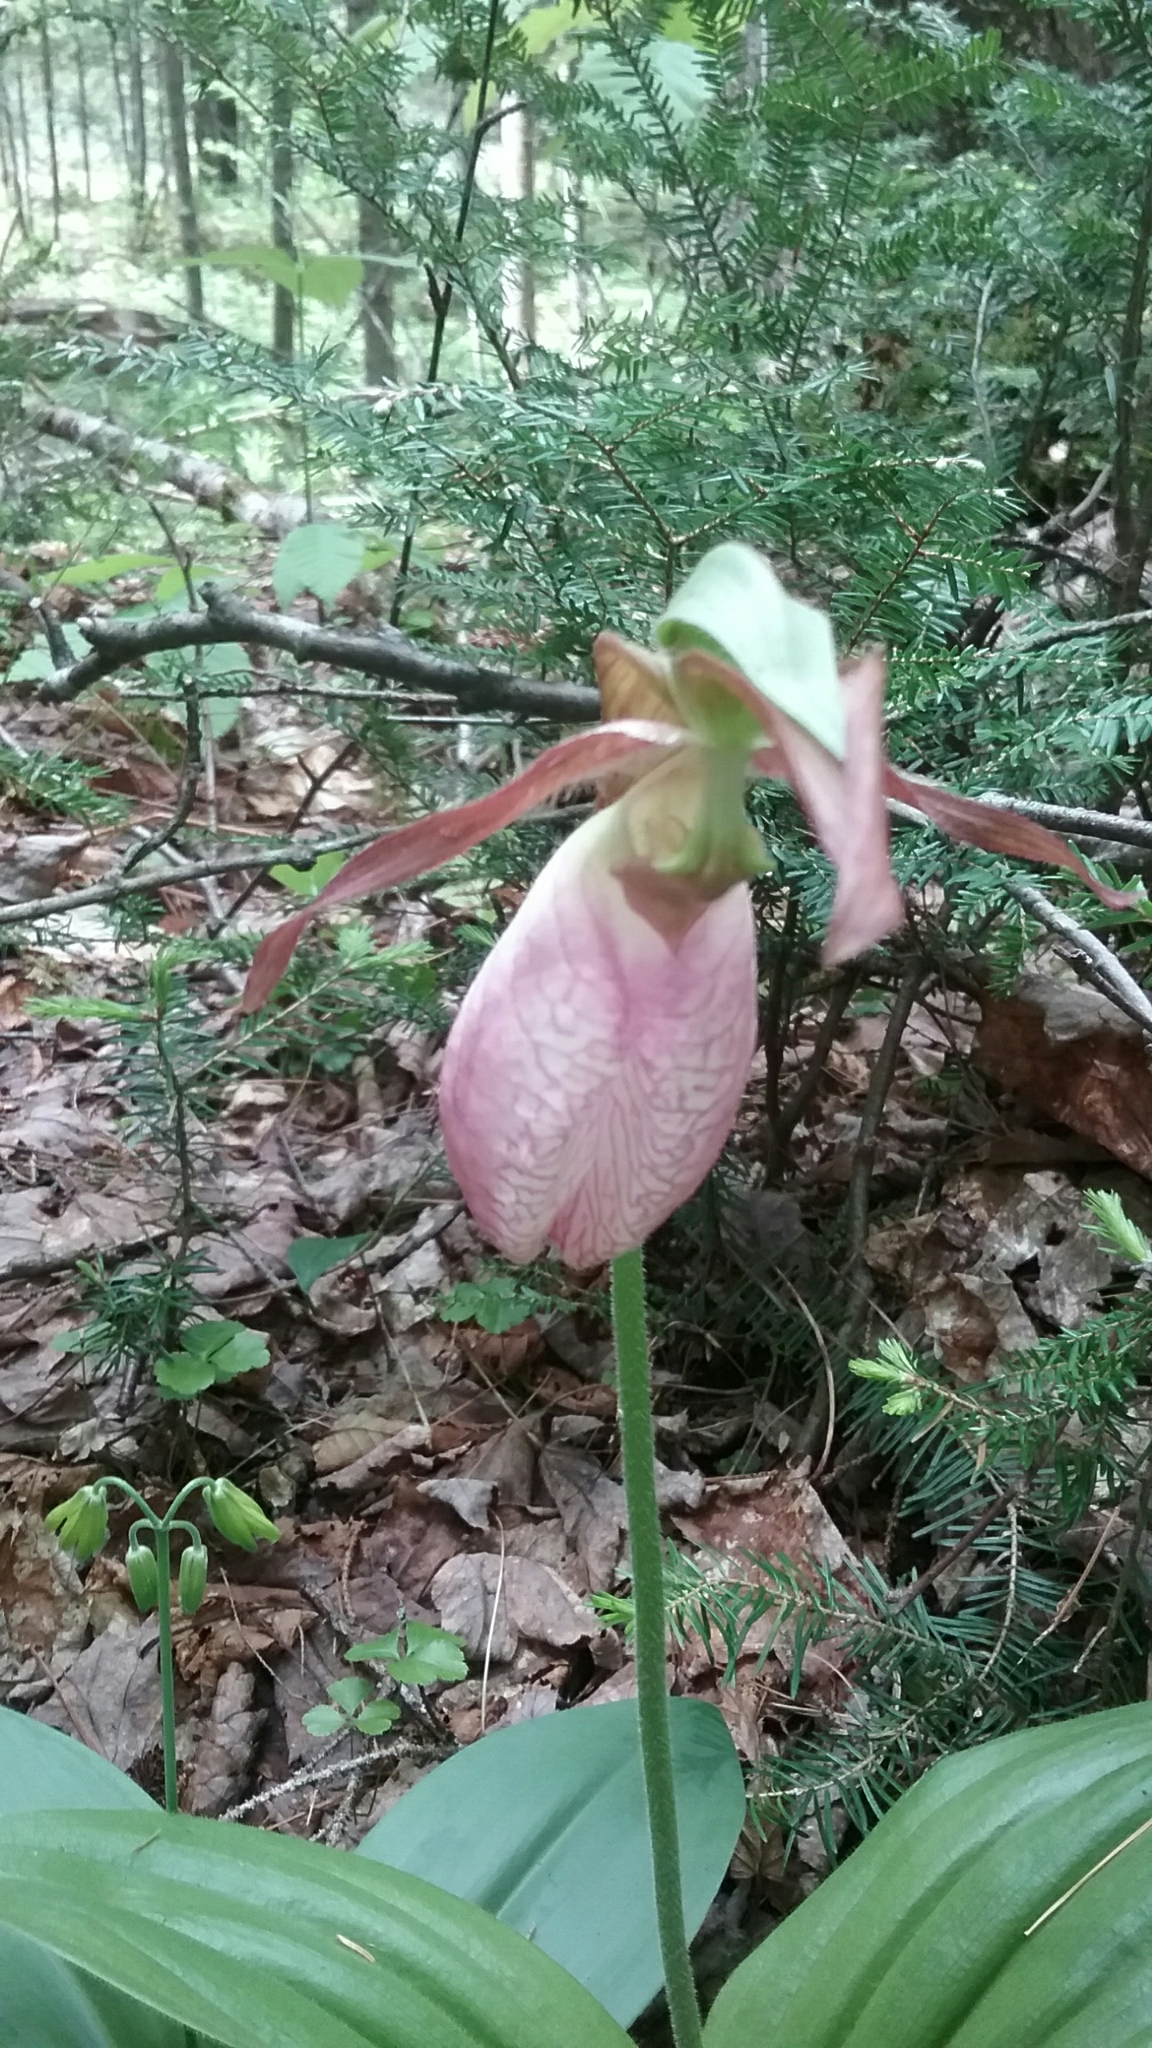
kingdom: Plantae
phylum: Tracheophyta
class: Liliopsida
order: Asparagales
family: Orchidaceae
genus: Cypripedium
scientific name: Cypripedium acaule
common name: Pink lady's-slipper
